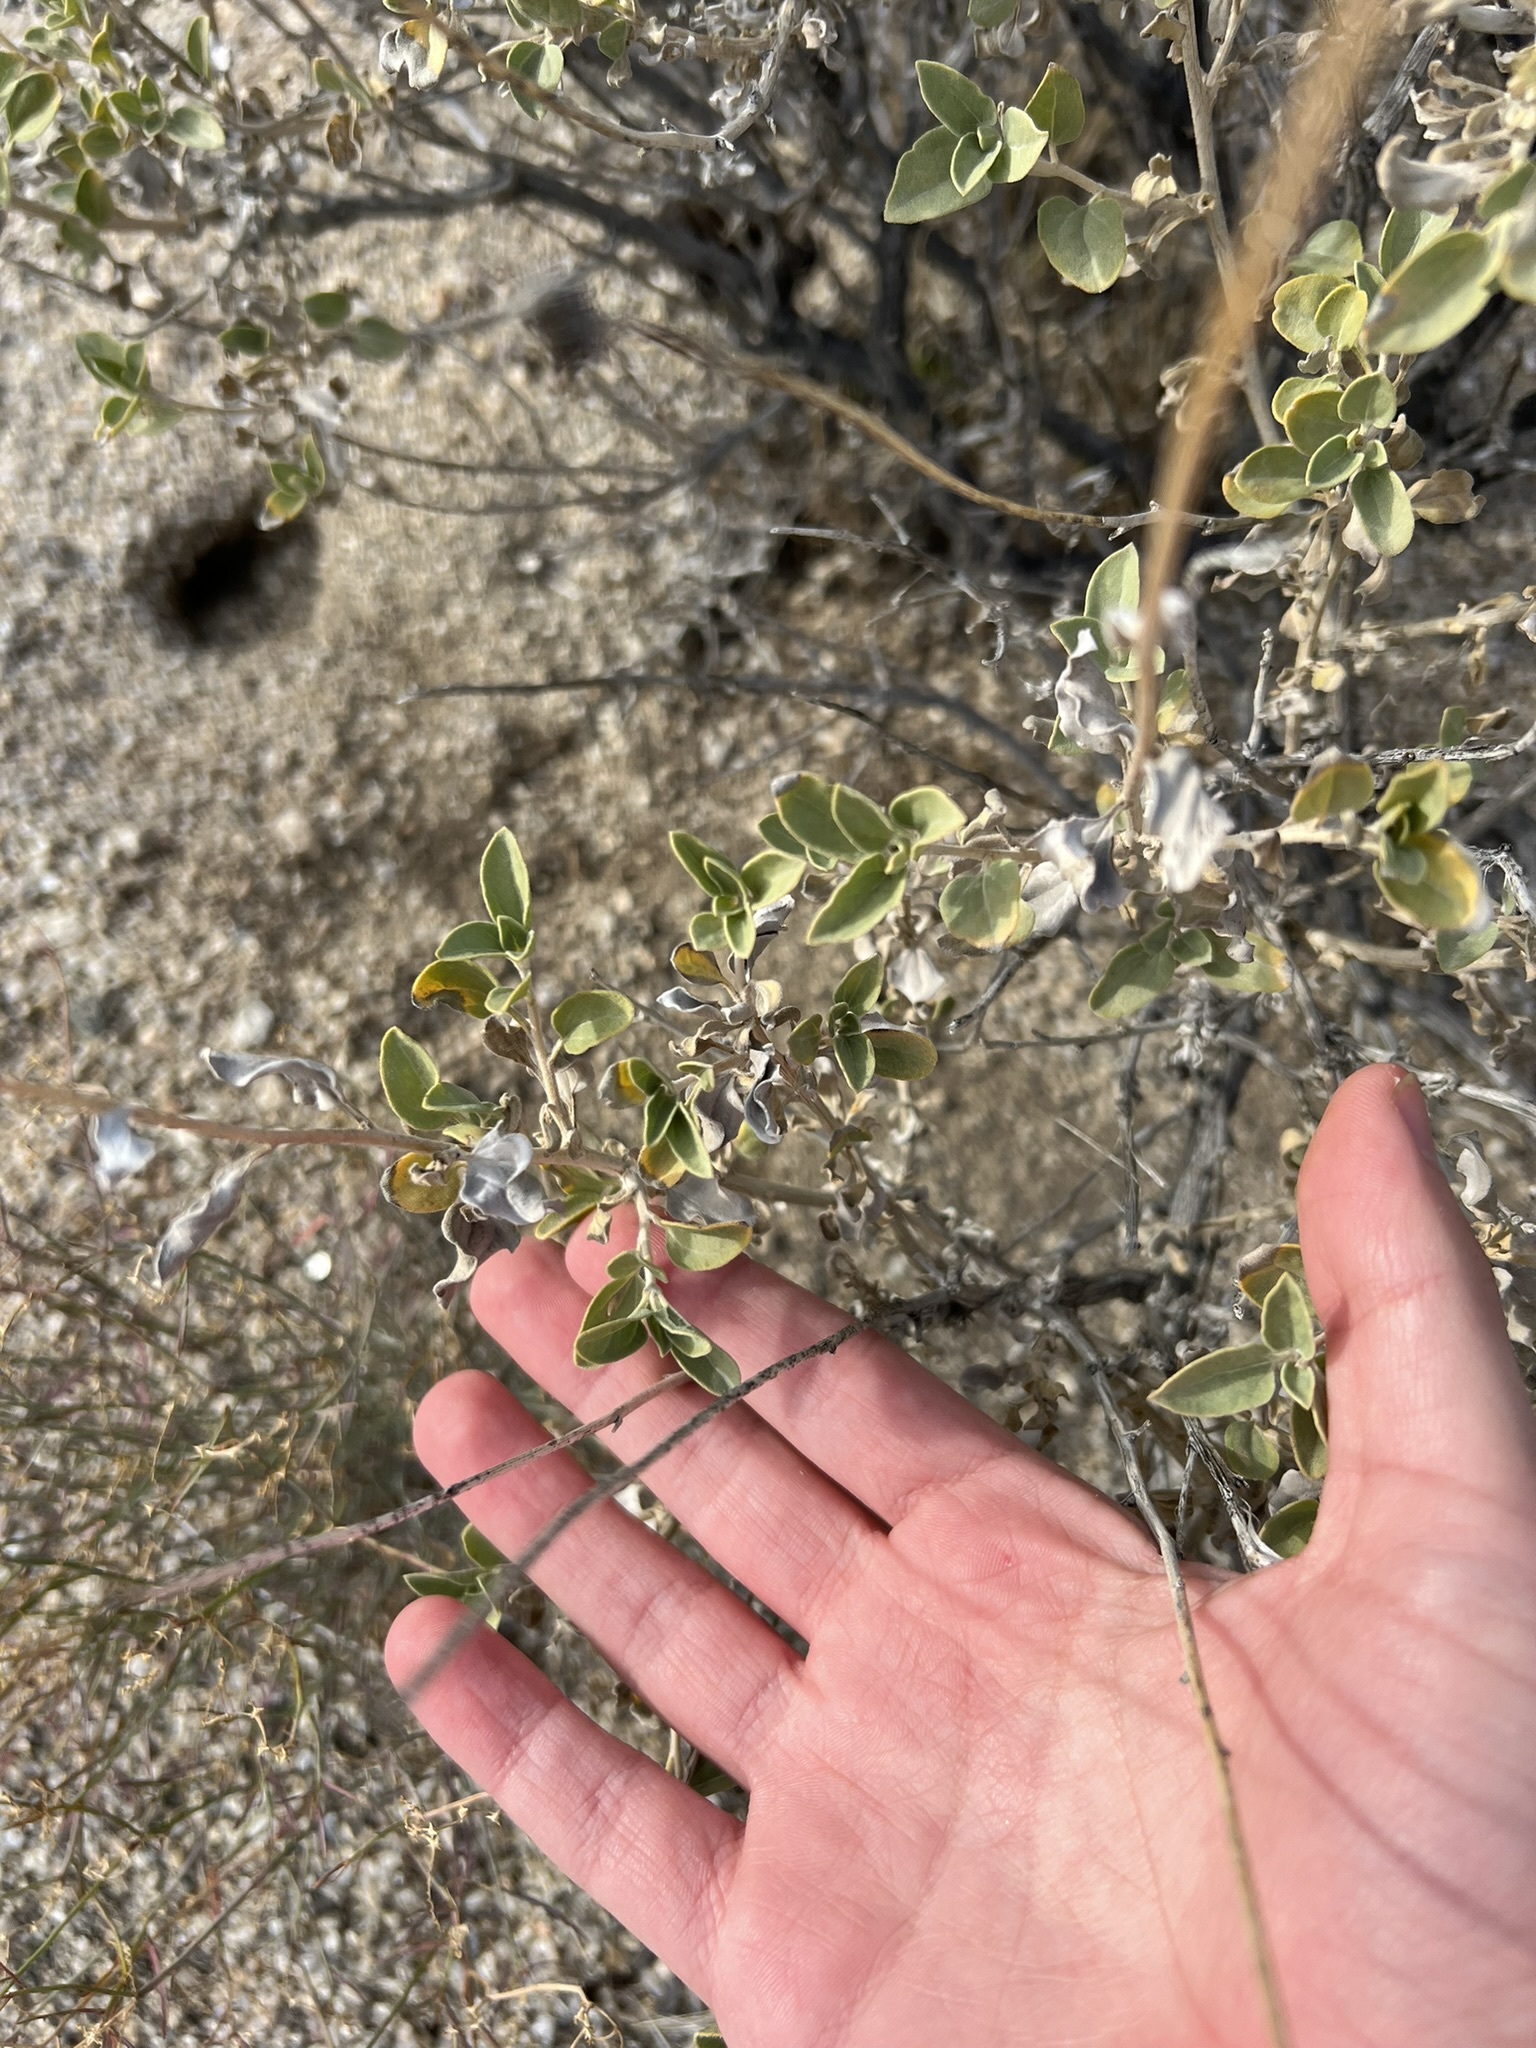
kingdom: Plantae
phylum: Tracheophyta
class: Magnoliopsida
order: Asterales
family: Asteraceae
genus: Encelia
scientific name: Encelia actoni
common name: Acton encelia
